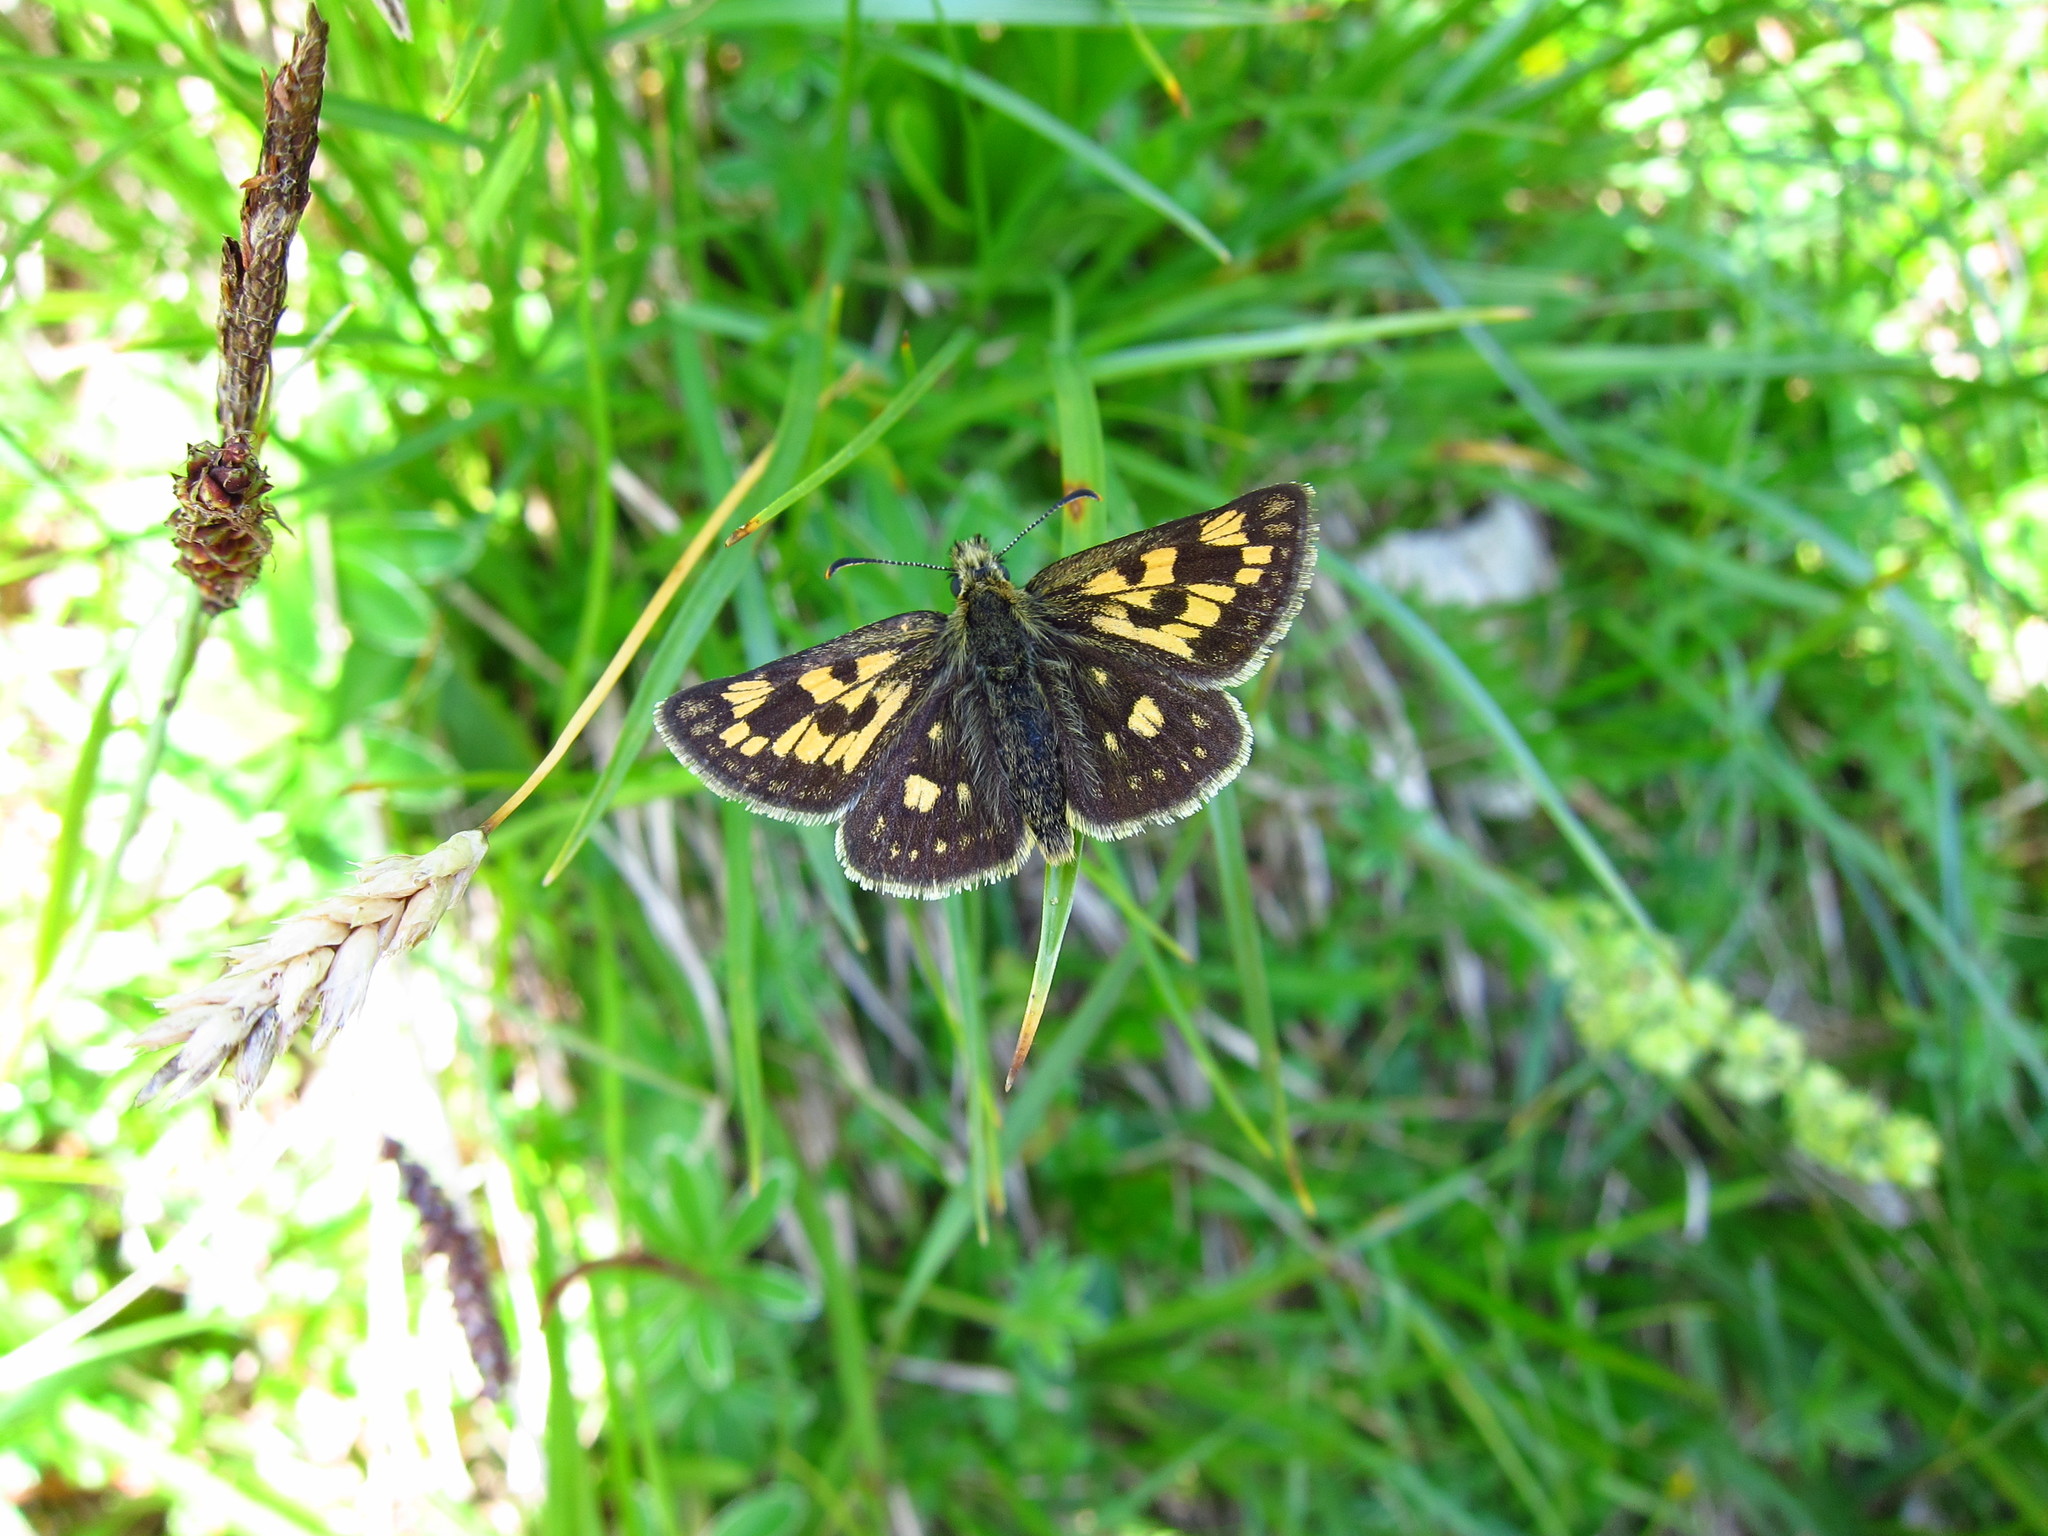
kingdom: Animalia
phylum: Arthropoda
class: Insecta
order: Lepidoptera
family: Hesperiidae
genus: Carterocephalus
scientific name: Carterocephalus palaemon
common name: Chequered skipper
